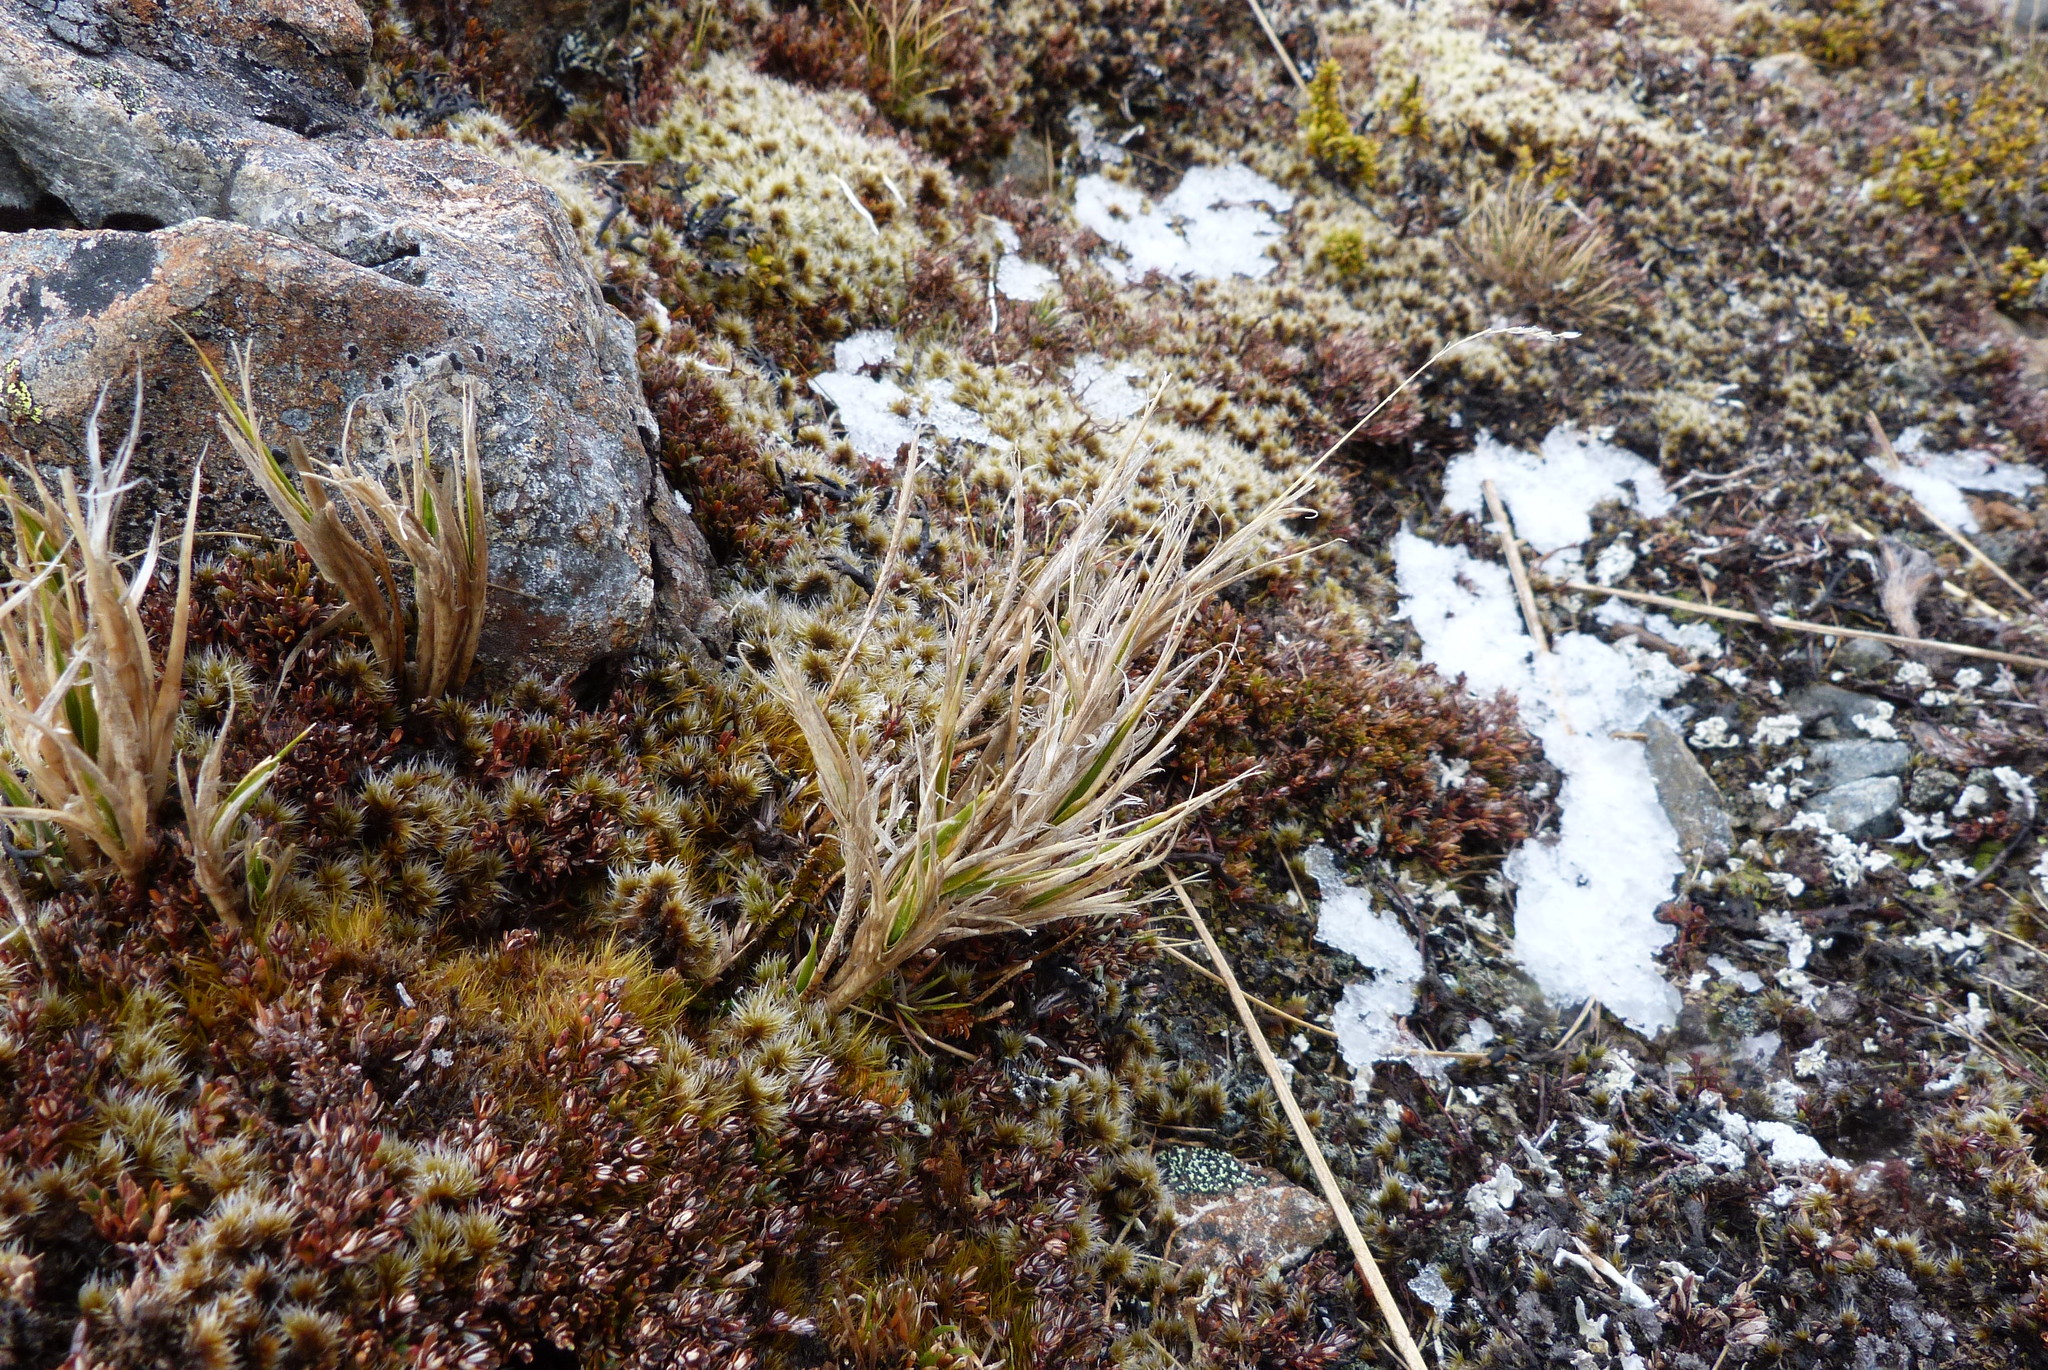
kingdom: Plantae
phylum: Tracheophyta
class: Liliopsida
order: Poales
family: Poaceae
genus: Zotovia
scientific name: Zotovia colensoi
